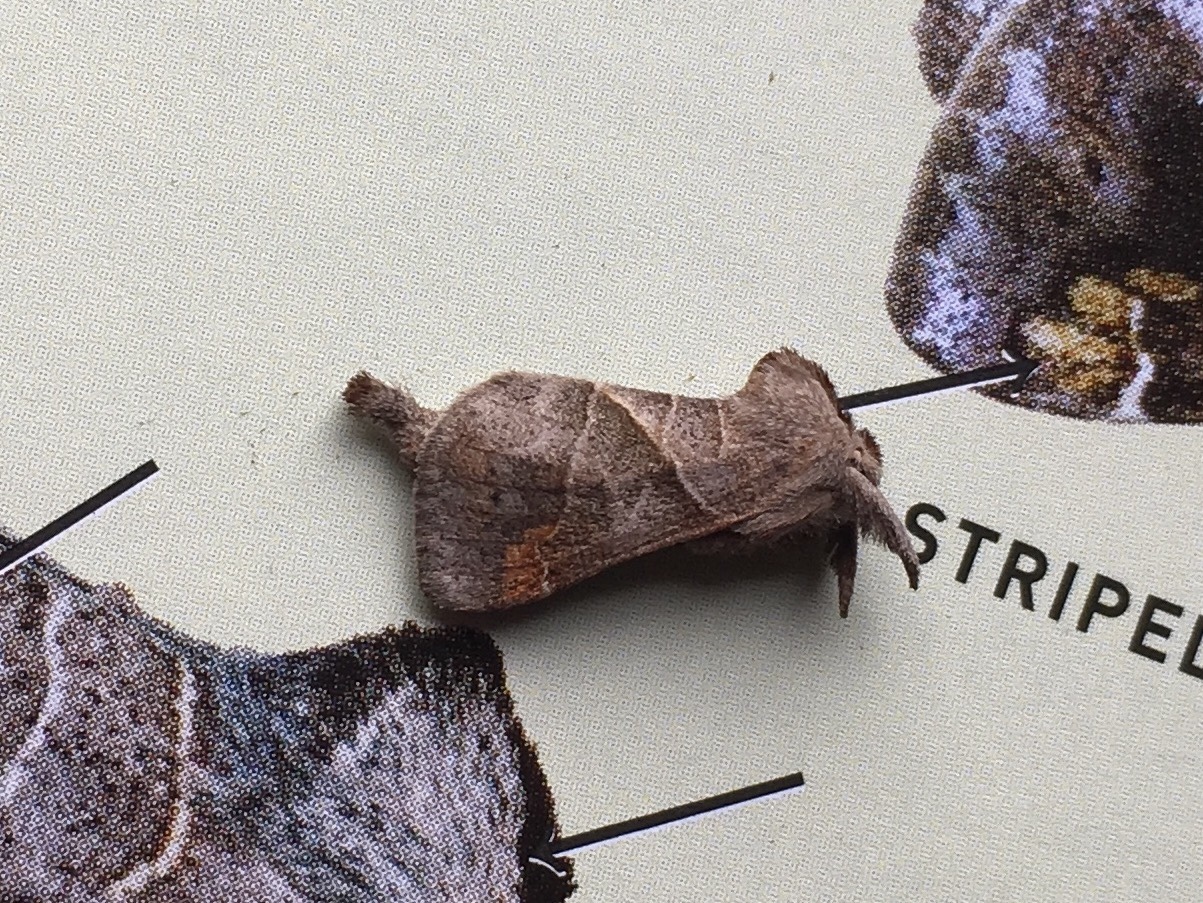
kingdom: Animalia
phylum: Arthropoda
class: Insecta
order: Lepidoptera
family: Notodontidae
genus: Clostera
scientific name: Clostera inclusa
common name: Angle-lined prominent
